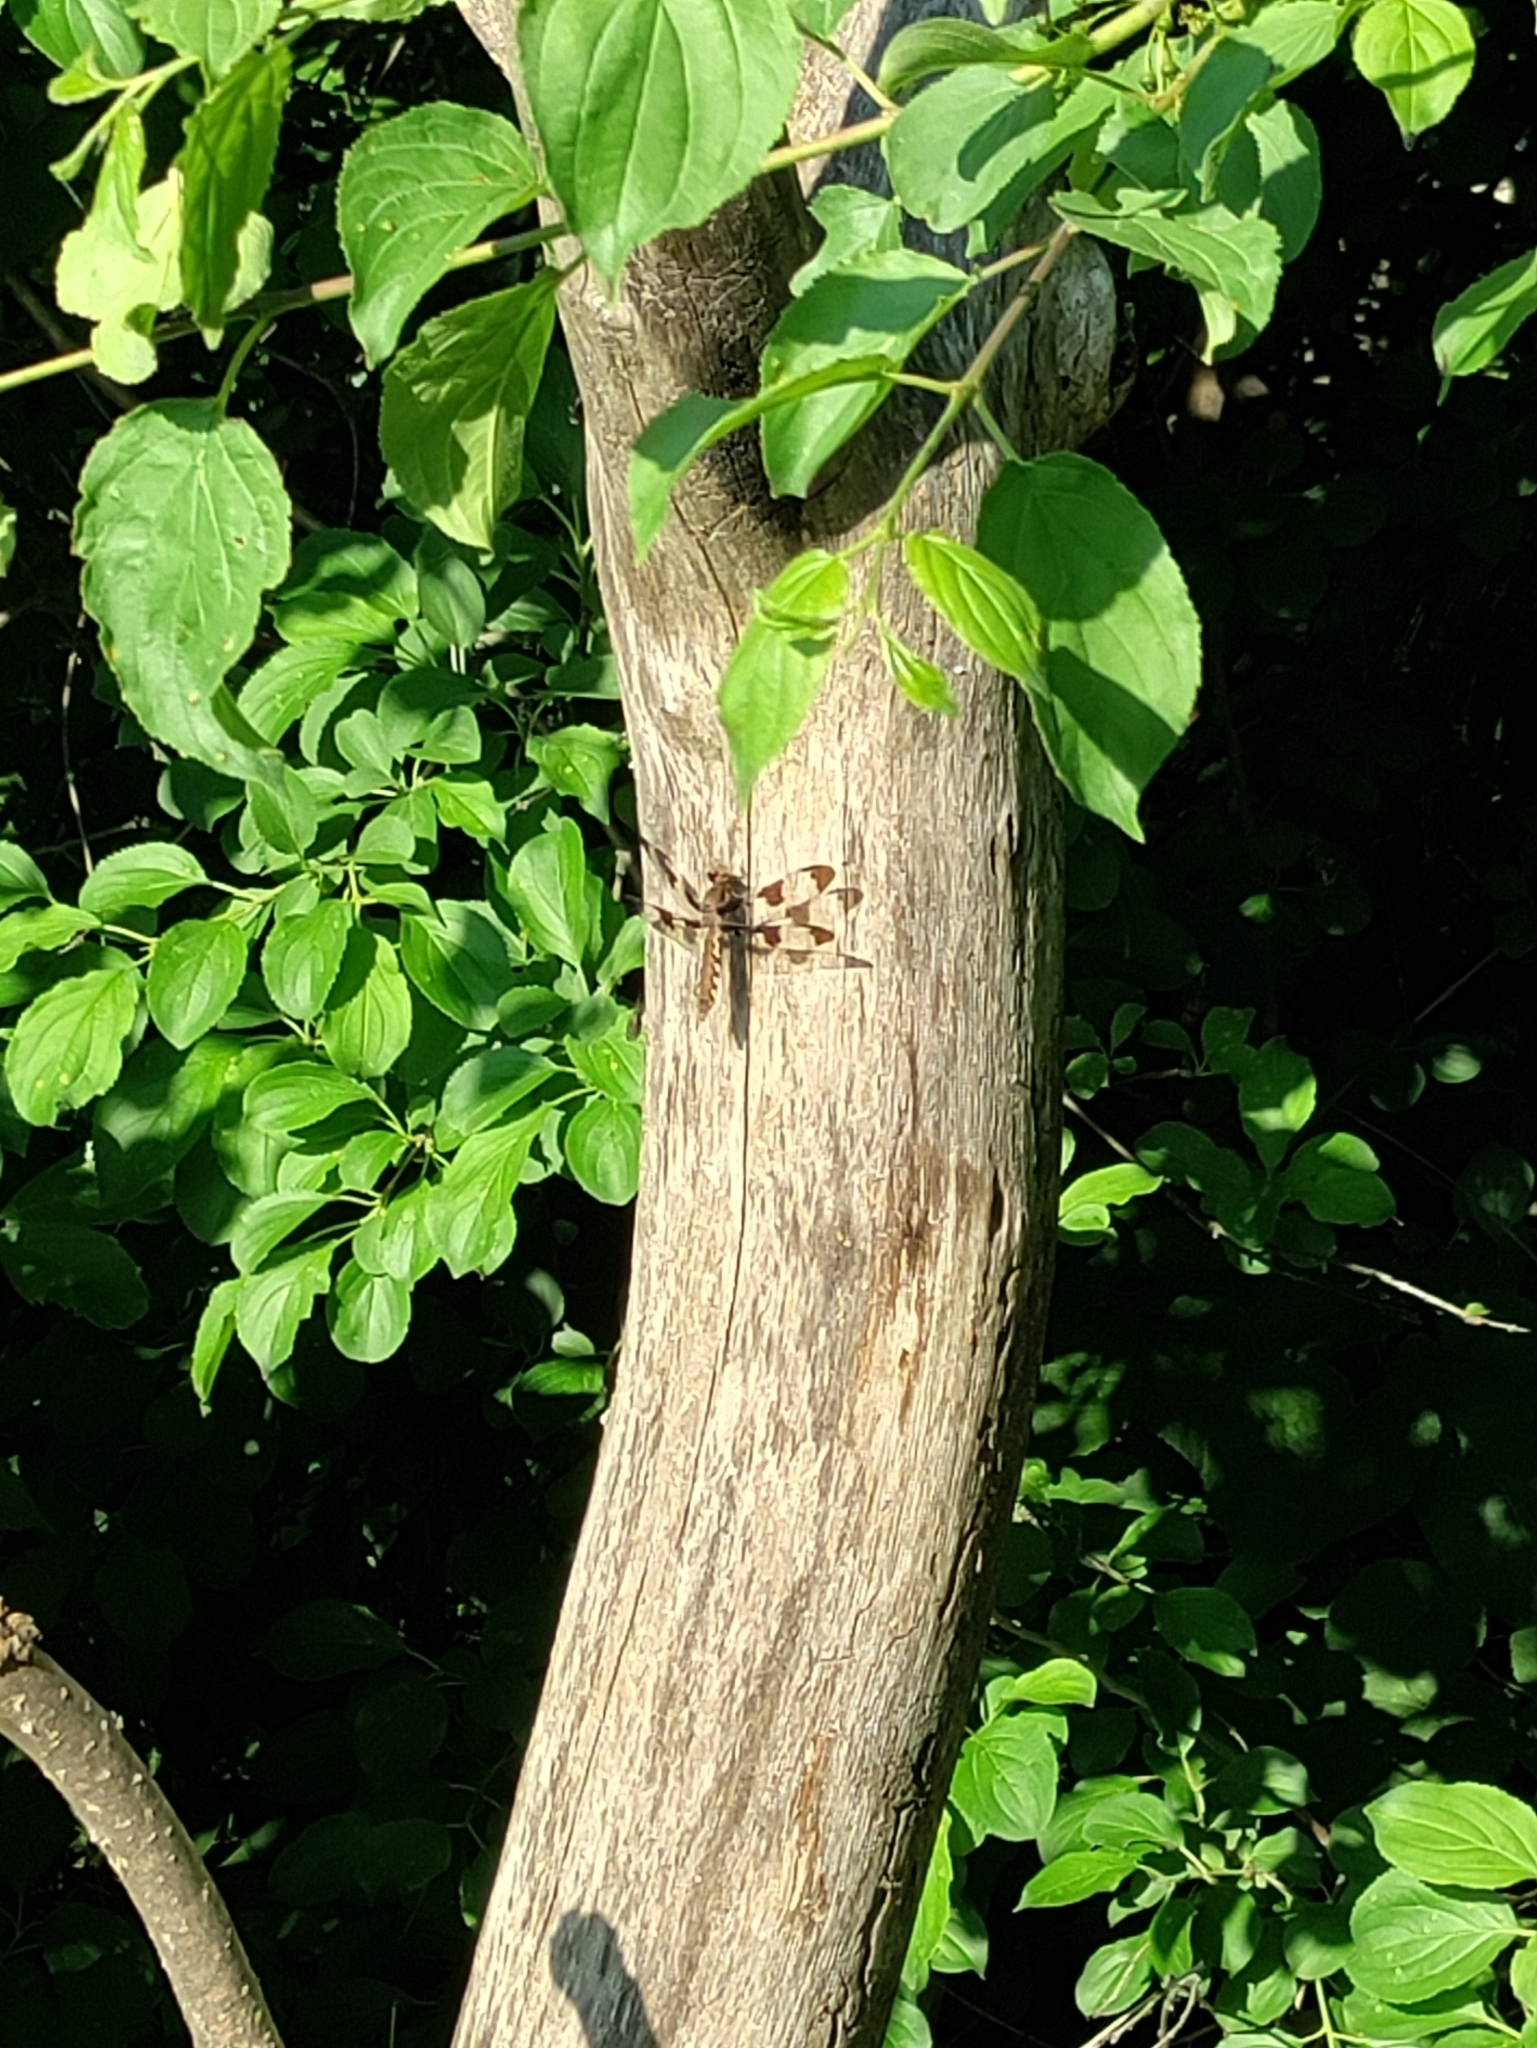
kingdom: Animalia
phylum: Arthropoda
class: Insecta
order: Odonata
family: Libellulidae
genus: Plathemis
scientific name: Plathemis lydia
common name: Common whitetail
